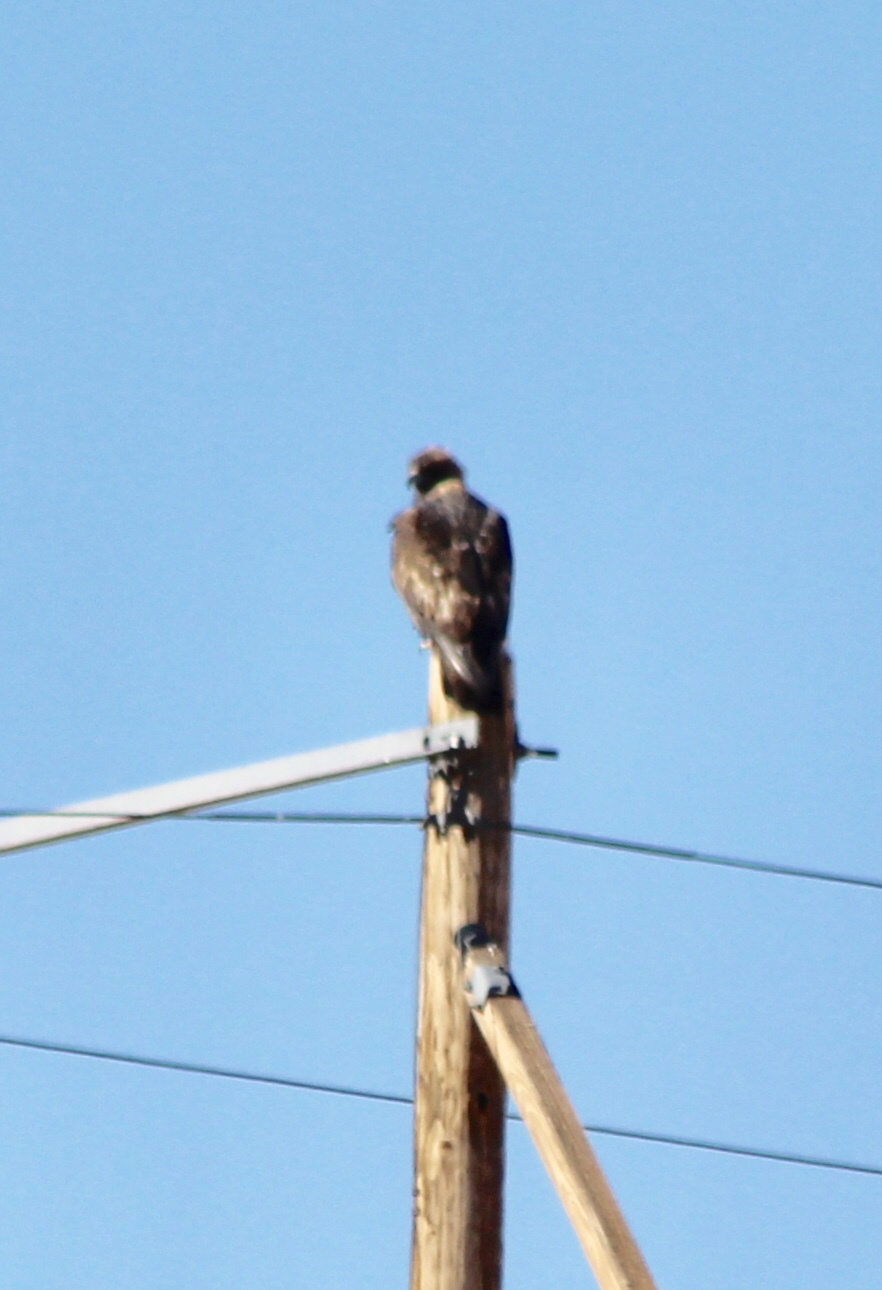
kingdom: Animalia
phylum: Chordata
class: Aves
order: Accipitriformes
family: Accipitridae
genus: Aquila
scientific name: Aquila chrysaetos
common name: Golden eagle
